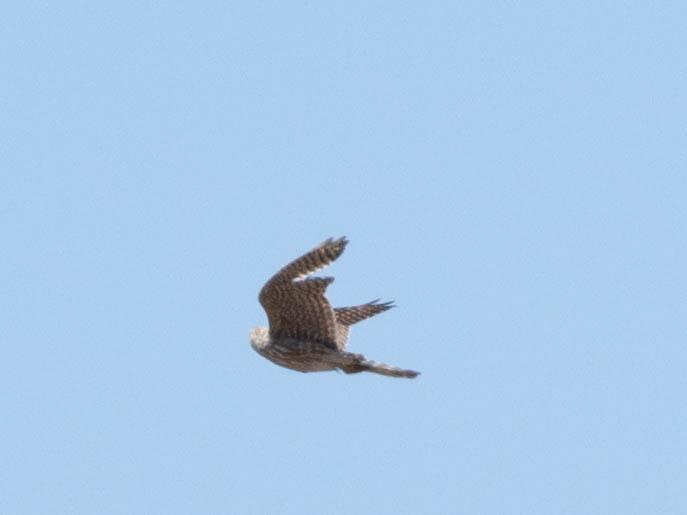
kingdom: Animalia
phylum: Chordata
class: Aves
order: Falconiformes
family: Falconidae
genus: Falco
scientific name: Falco columbarius
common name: Merlin
